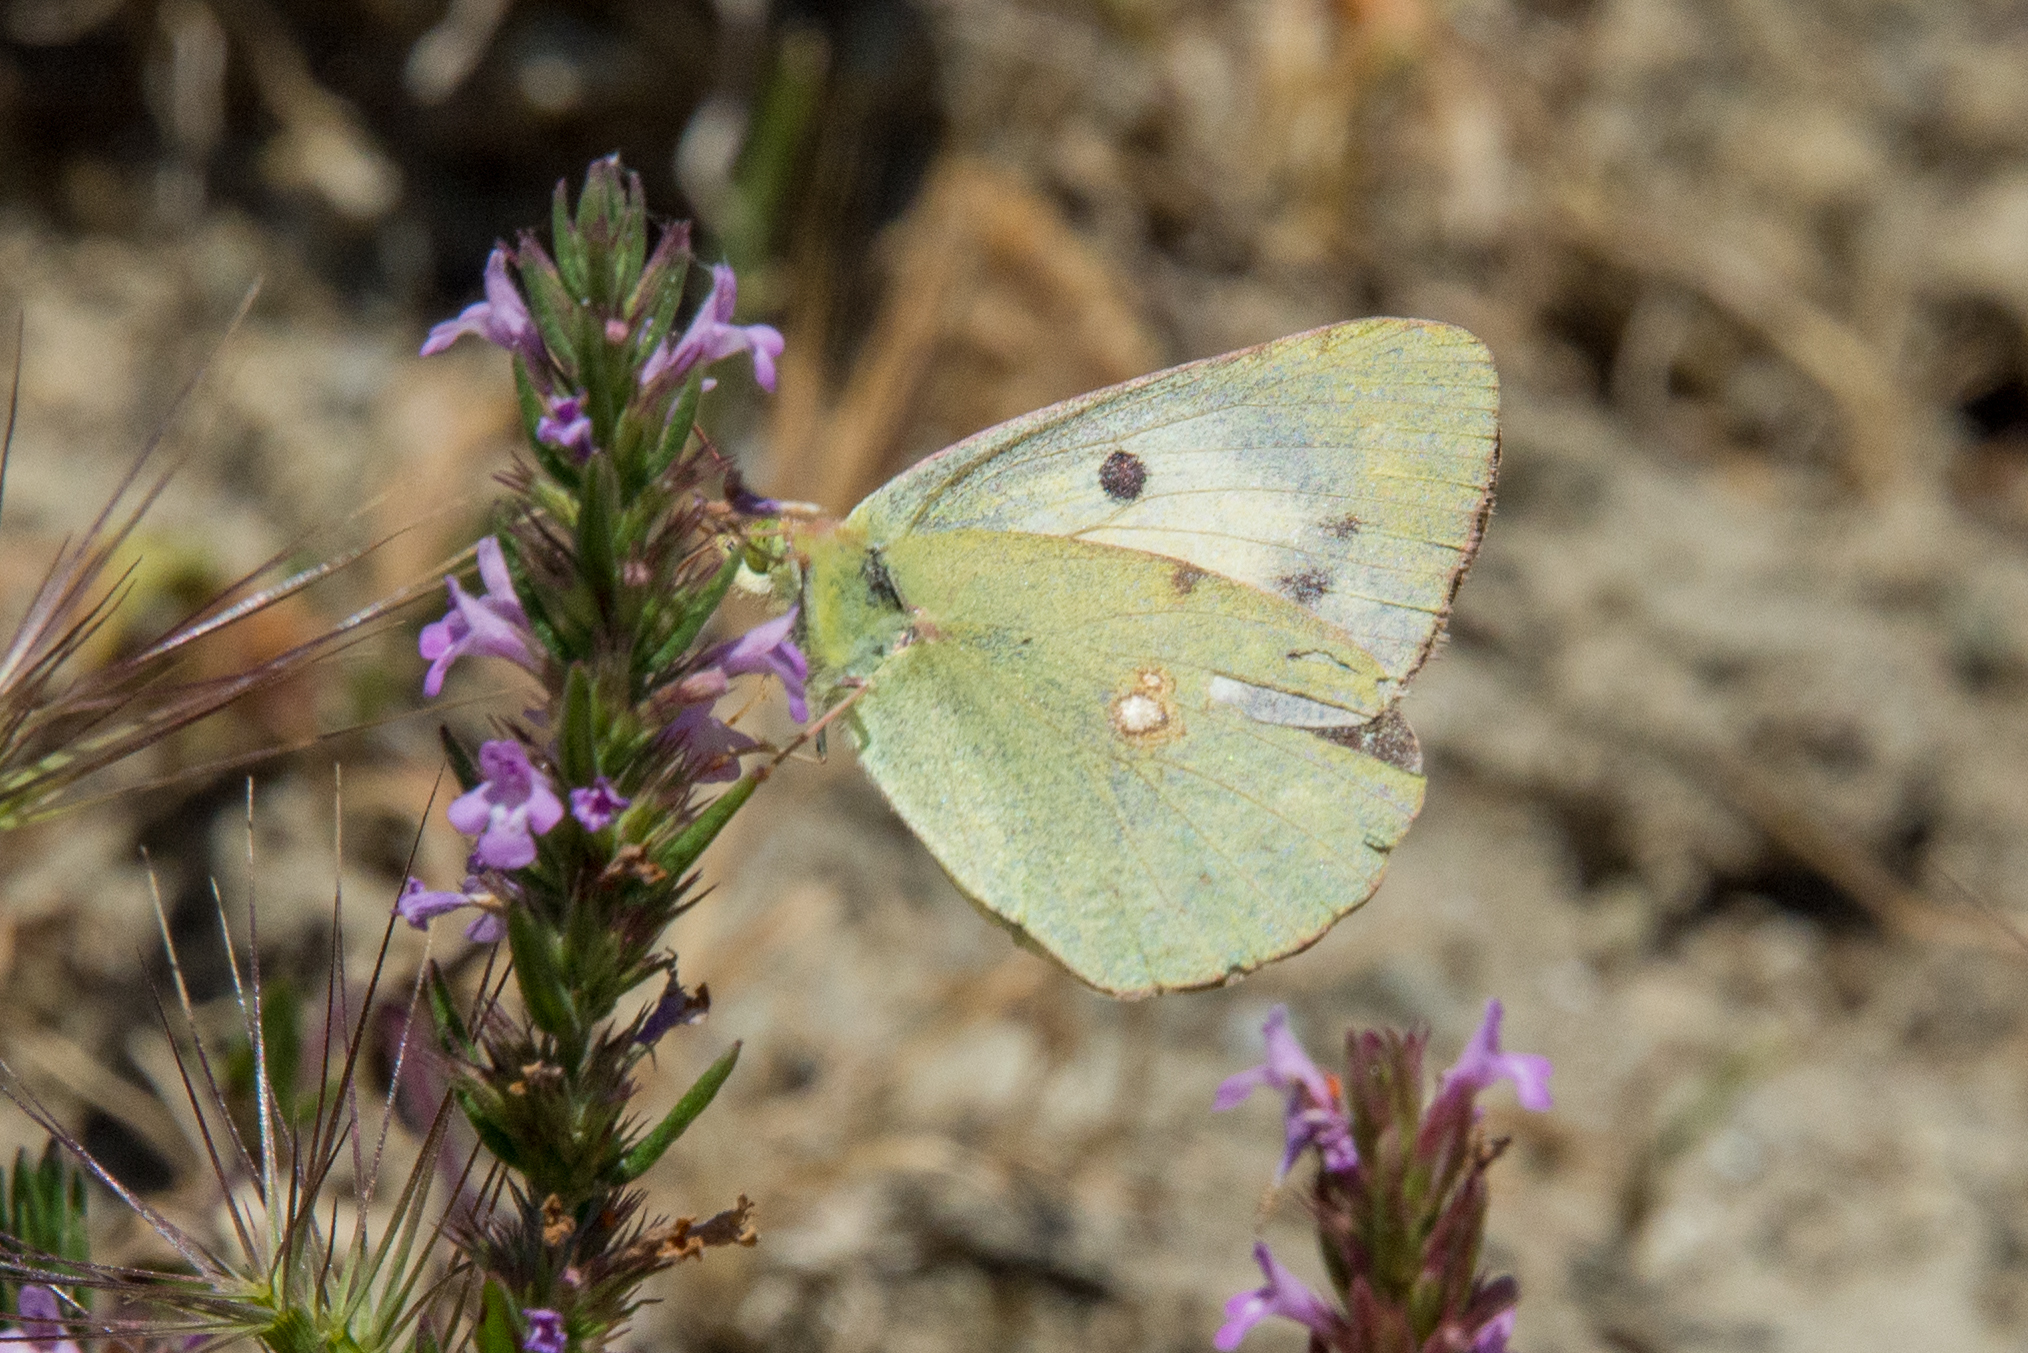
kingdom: Animalia
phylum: Arthropoda
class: Insecta
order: Lepidoptera
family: Pieridae
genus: Colias
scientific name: Colias croceus
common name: Clouded yellow
